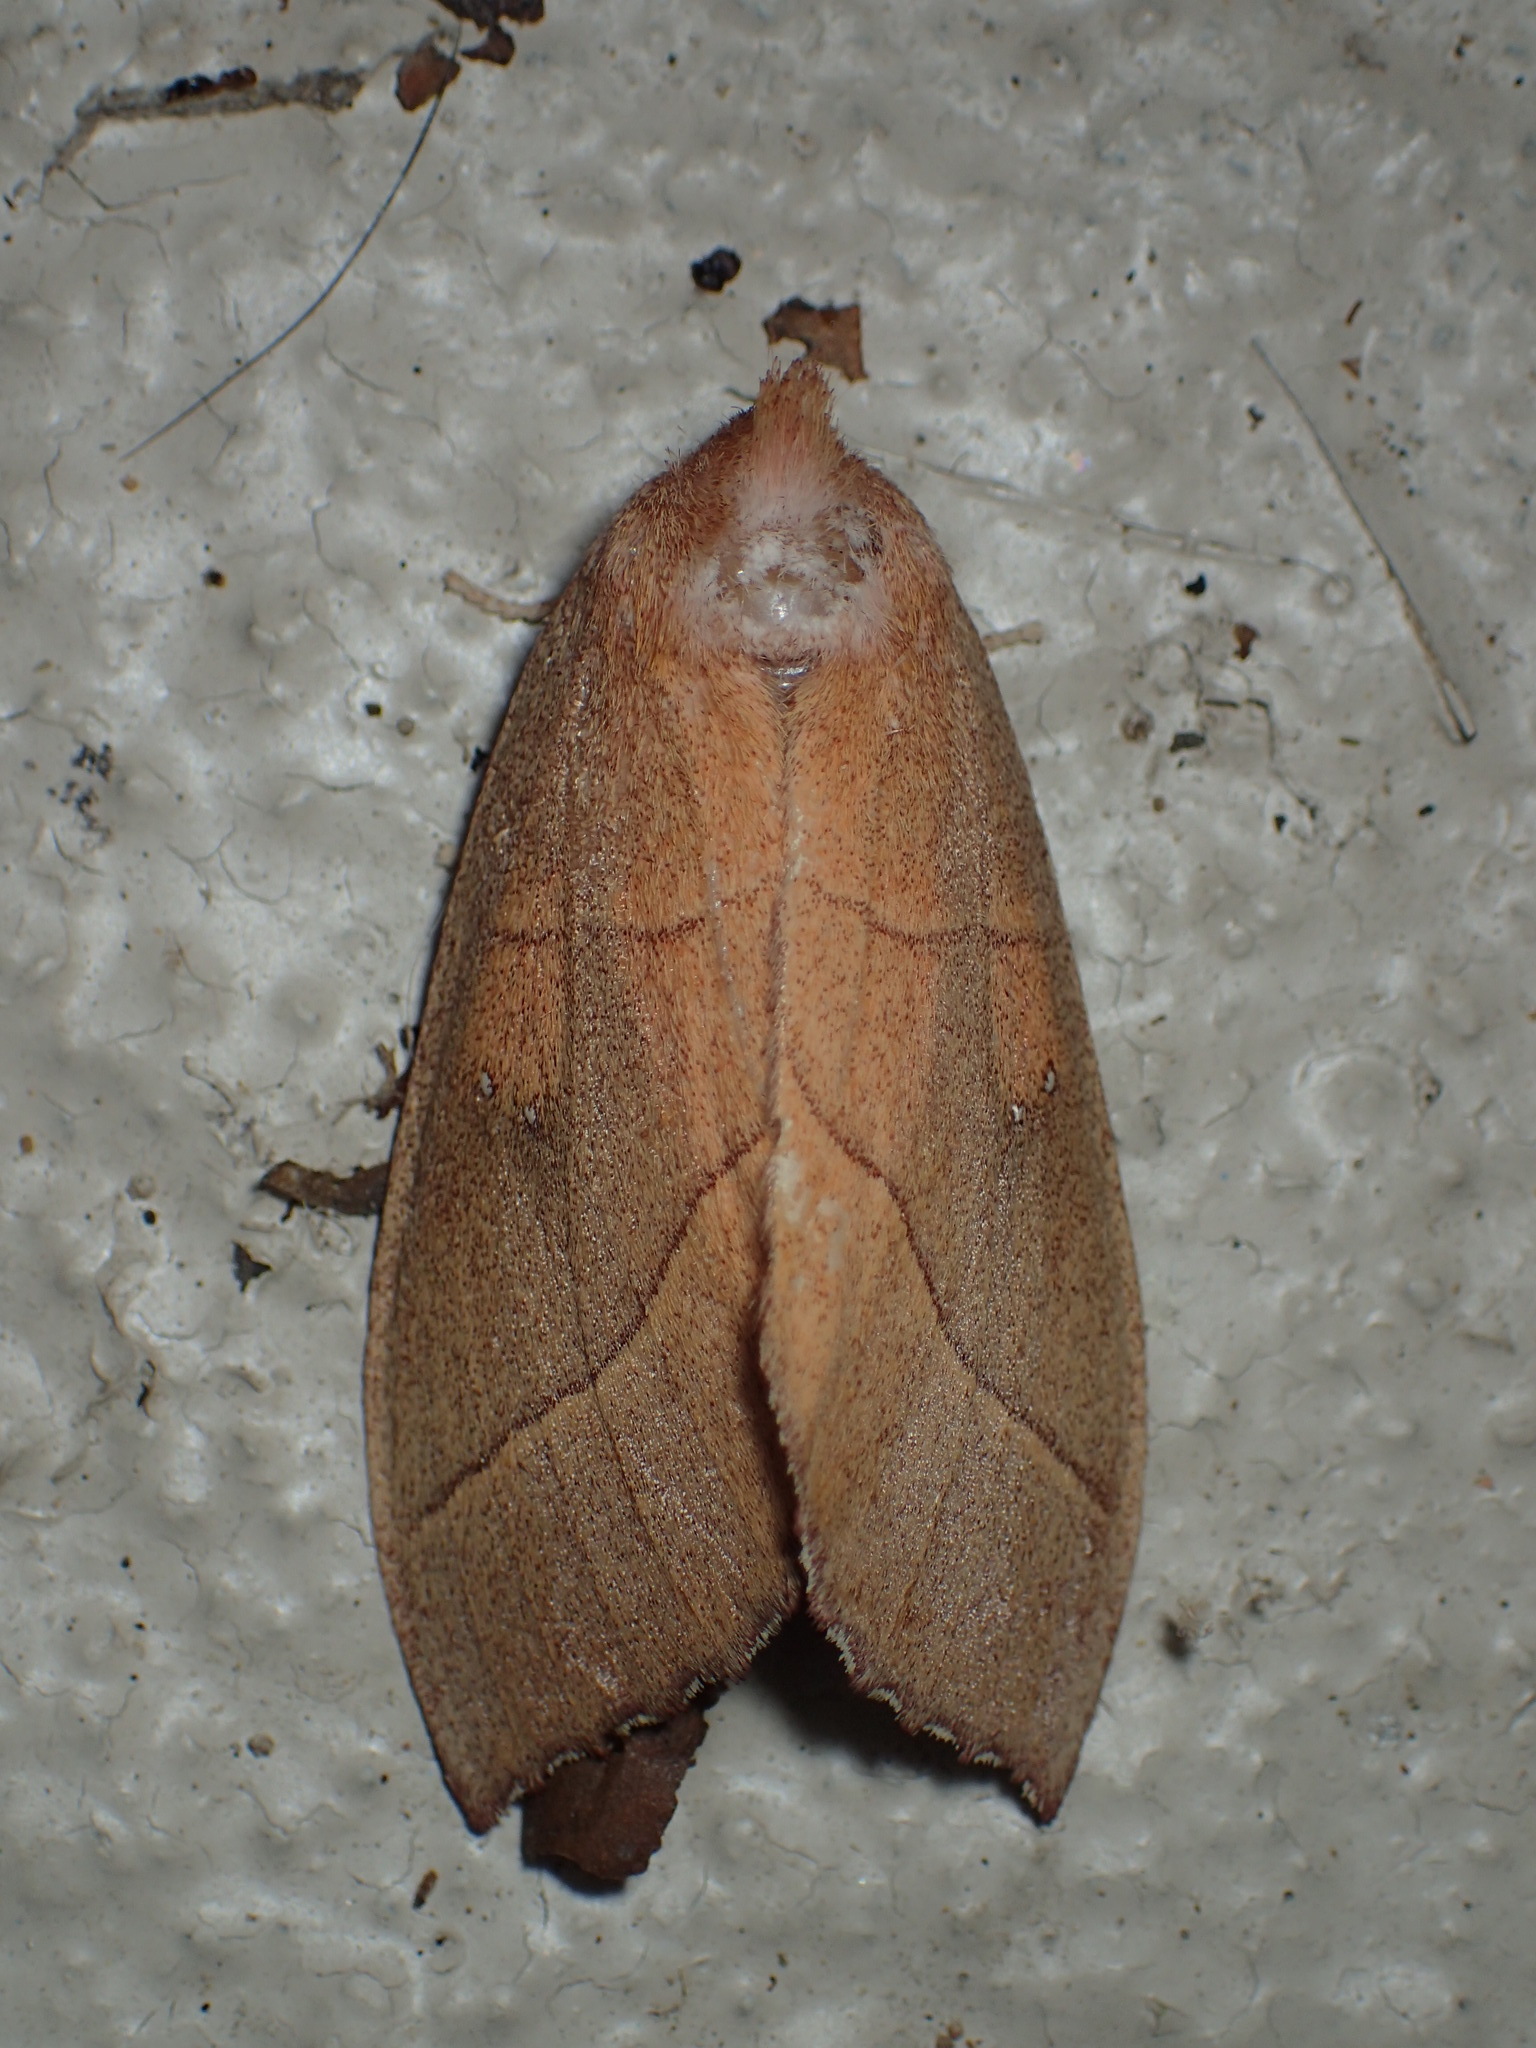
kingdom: Animalia
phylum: Arthropoda
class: Insecta
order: Lepidoptera
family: Notodontidae
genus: Nadata
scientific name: Nadata gibbosa
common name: White-dotted prominent
